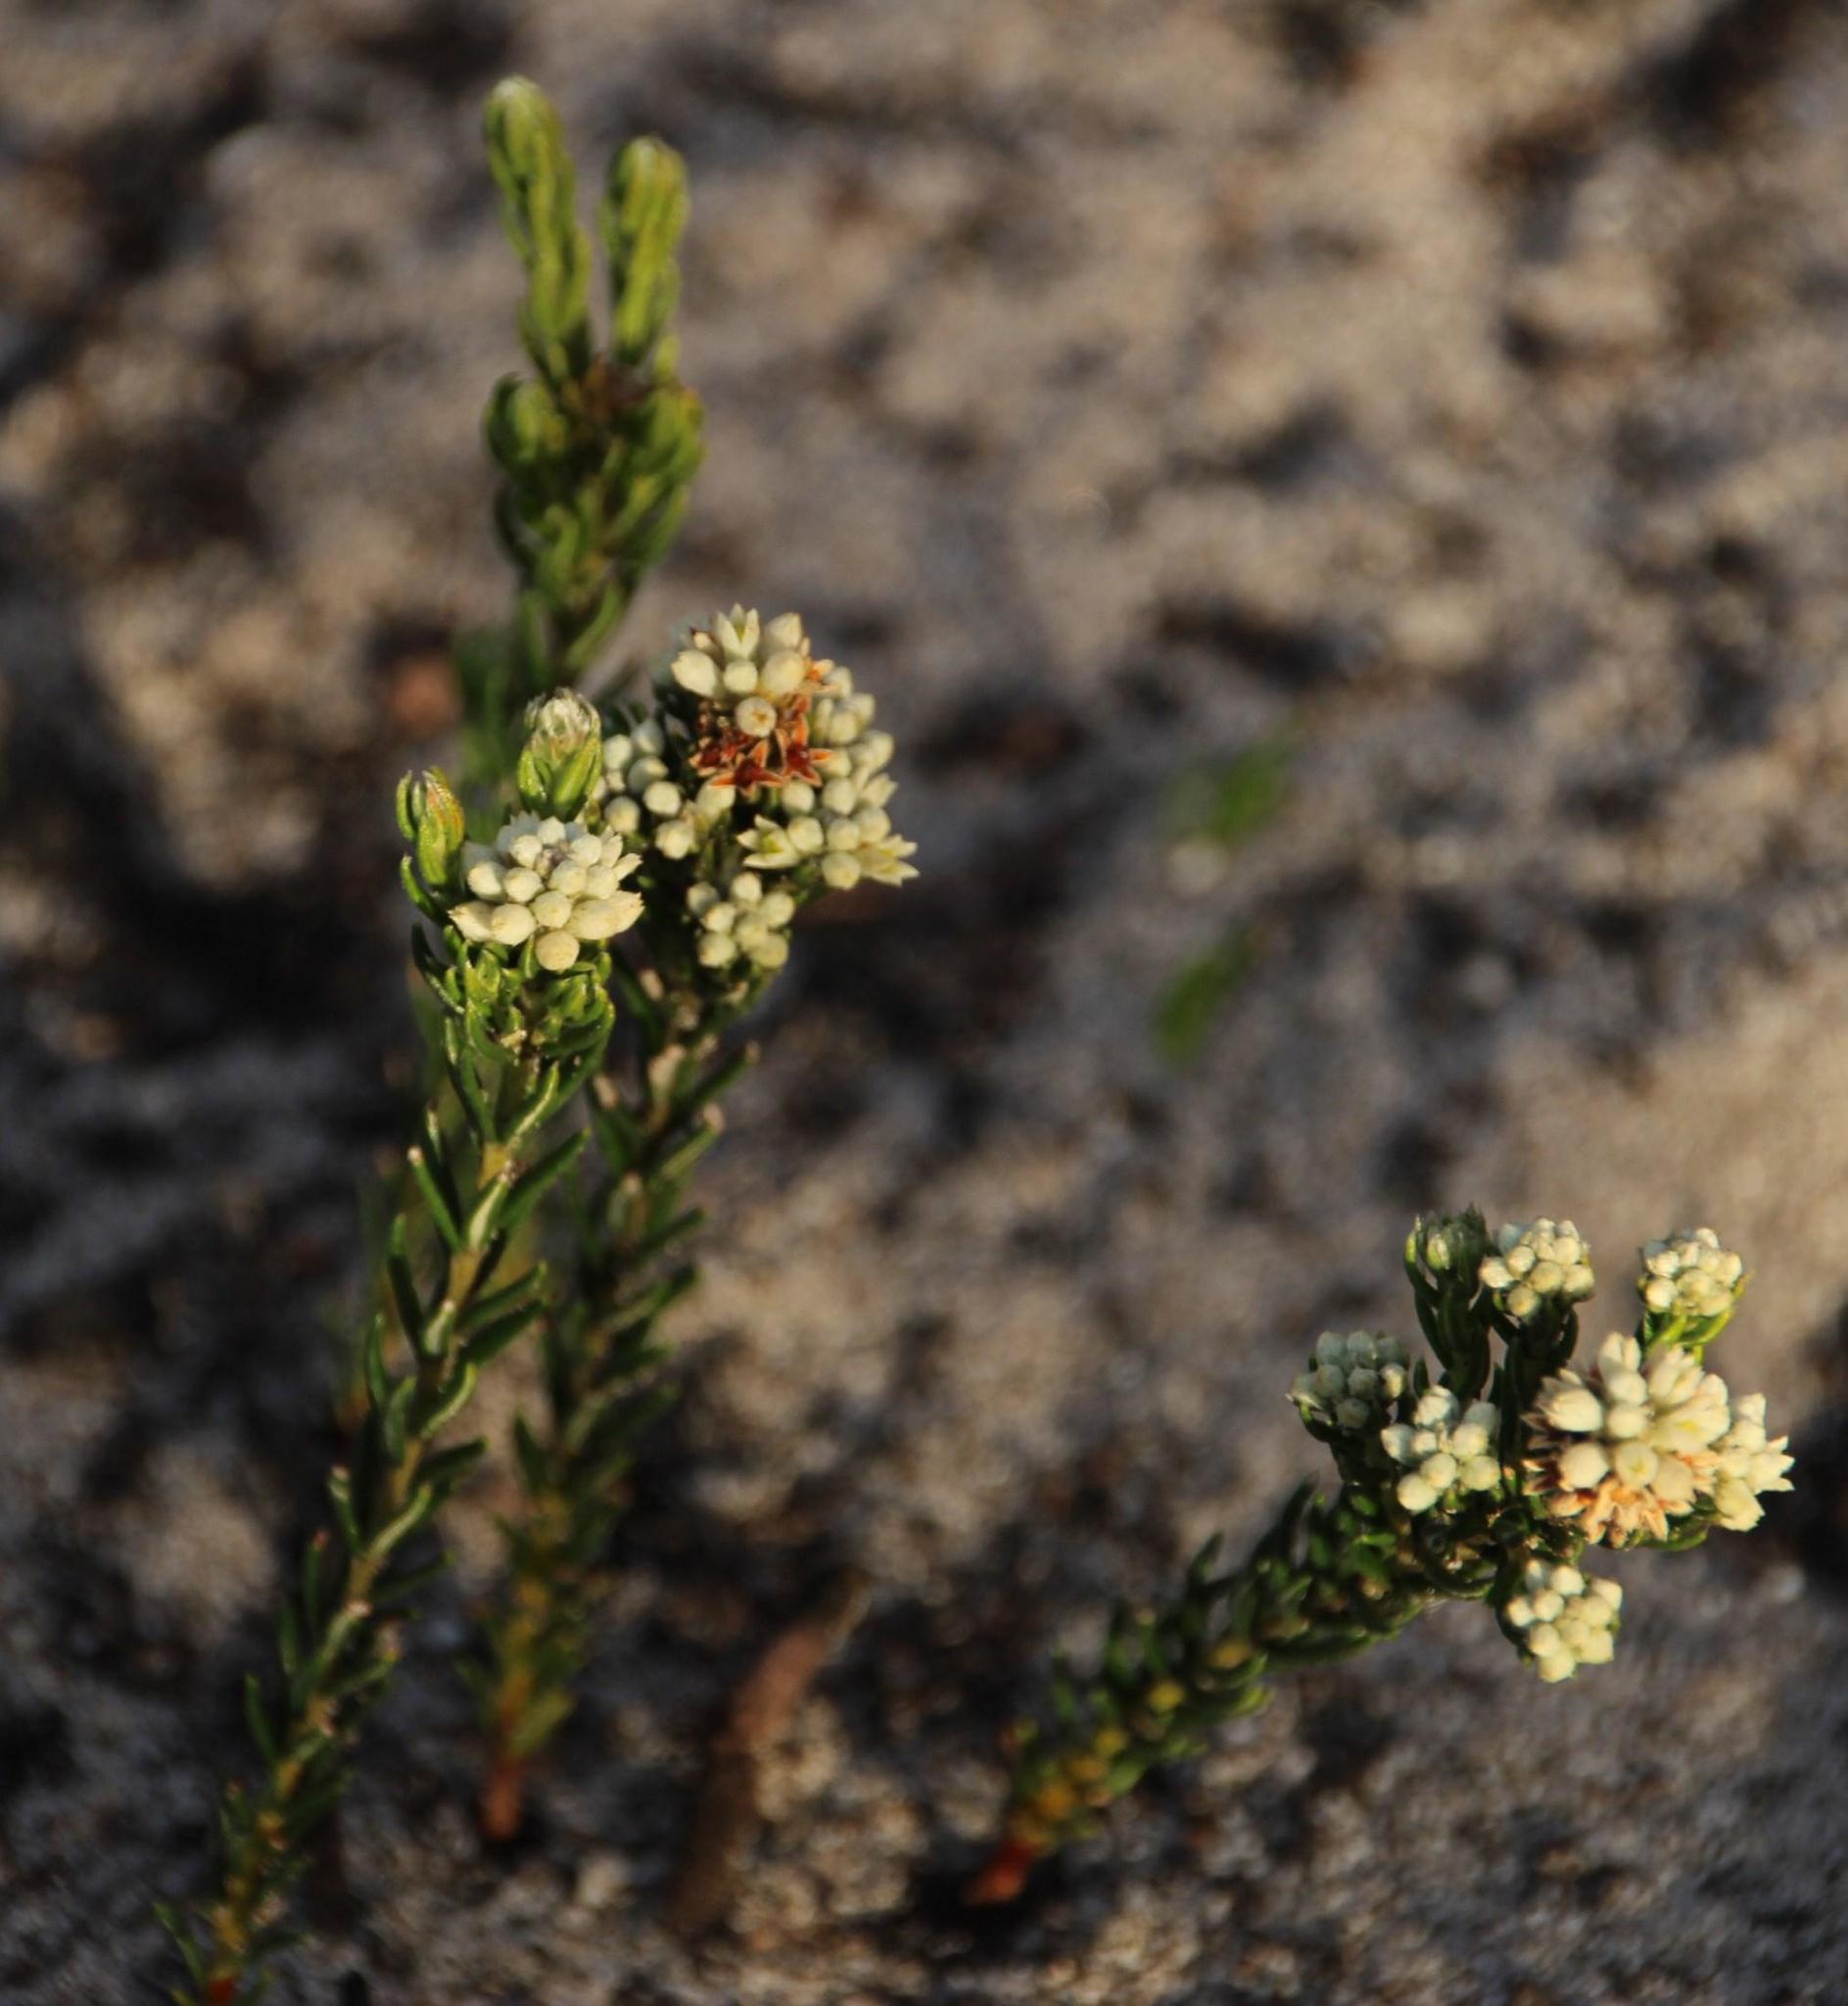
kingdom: Plantae
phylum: Tracheophyta
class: Magnoliopsida
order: Rosales
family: Rhamnaceae
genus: Phylica
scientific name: Phylica imberbis
